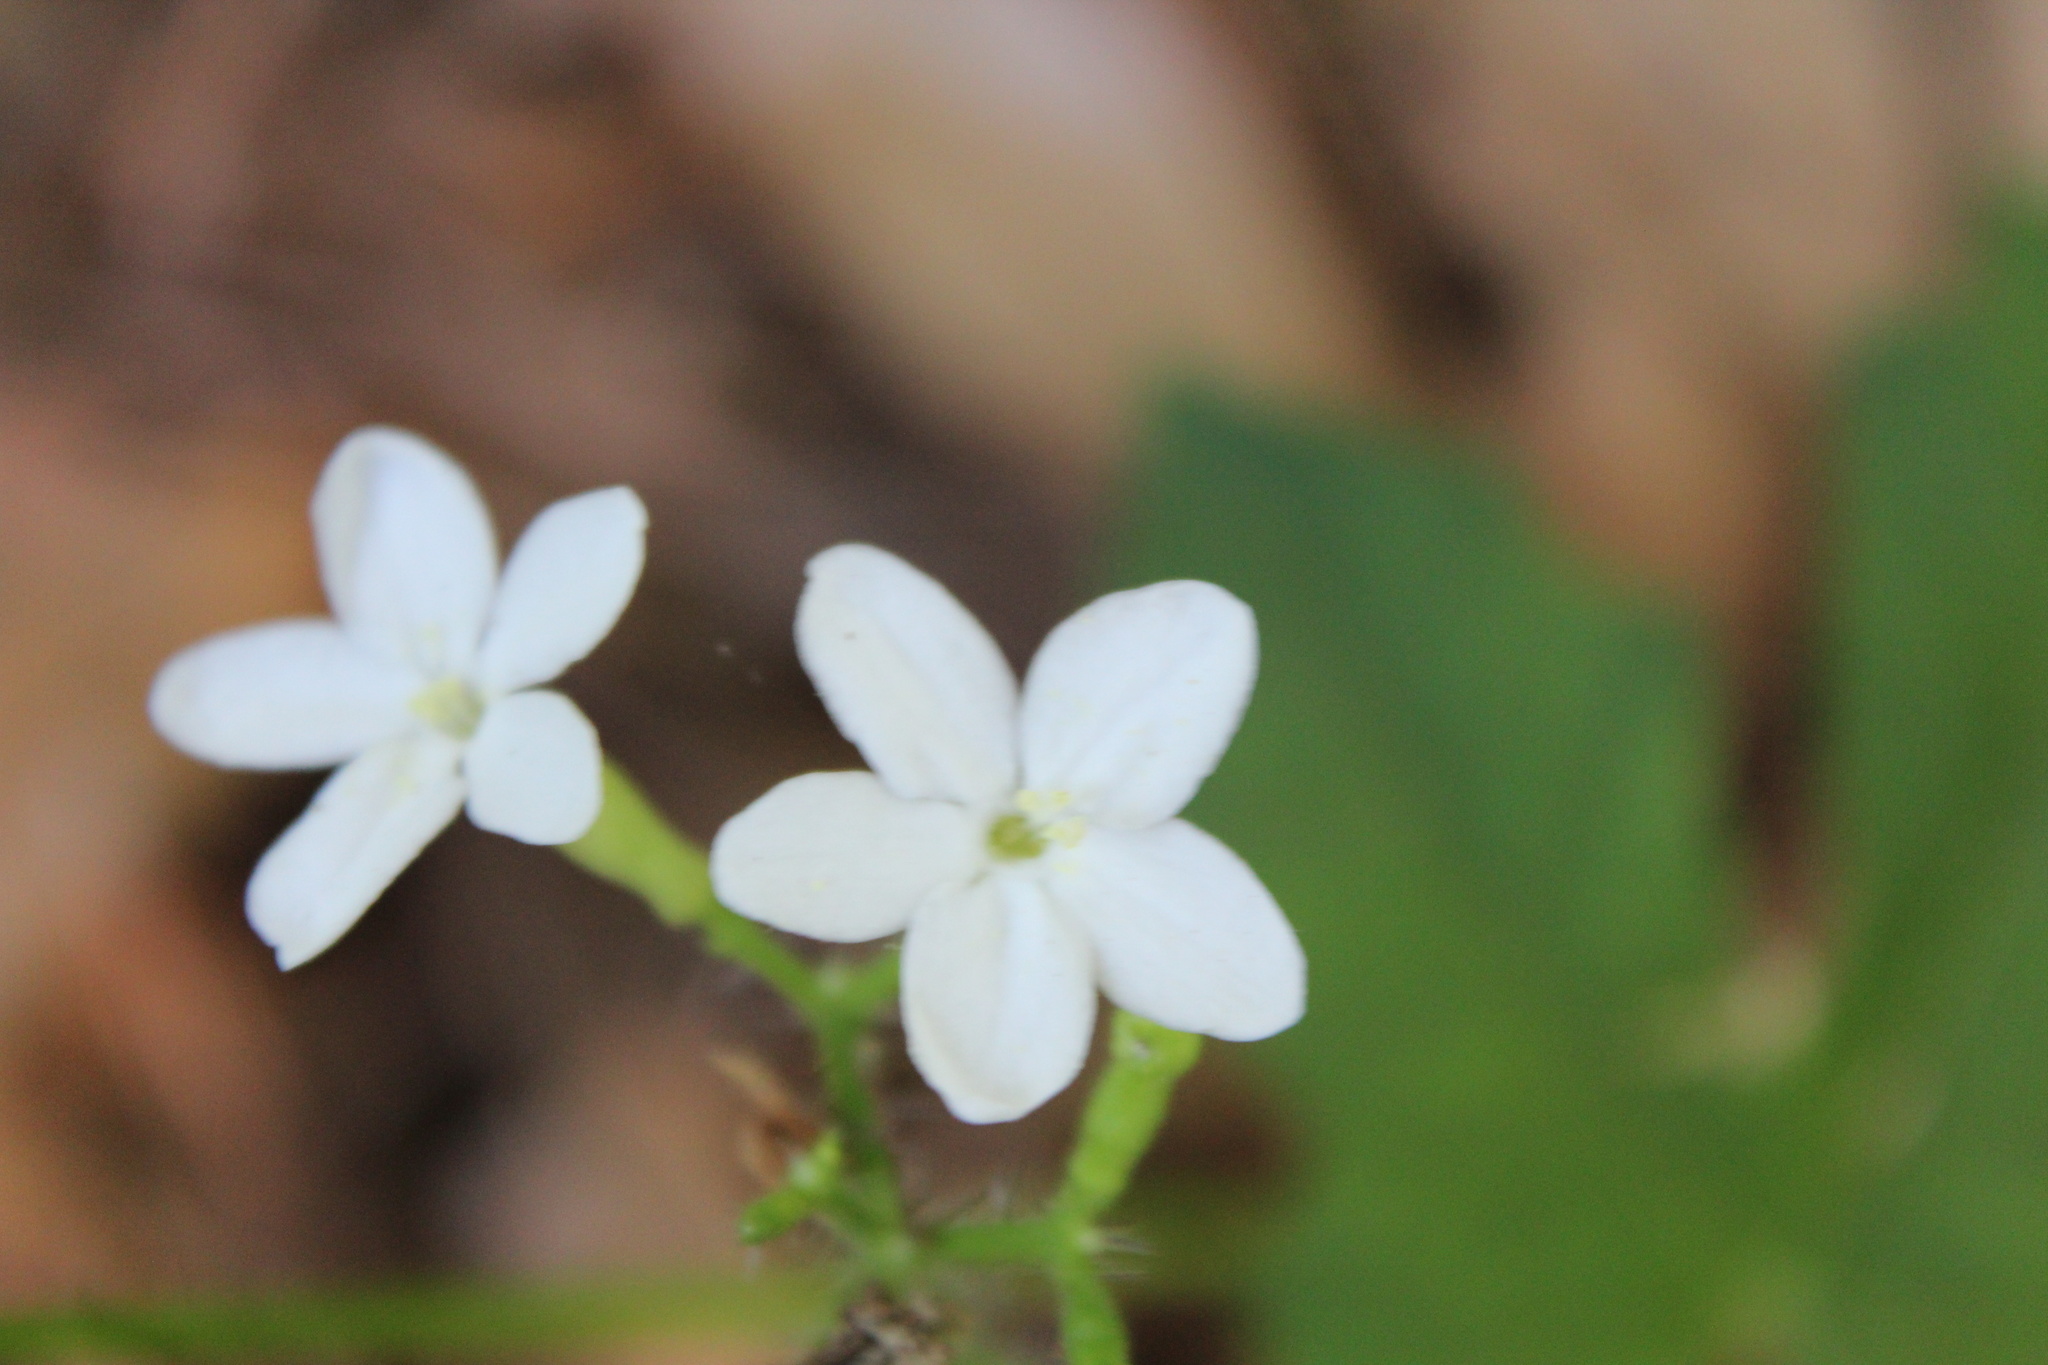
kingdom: Plantae
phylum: Tracheophyta
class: Magnoliopsida
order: Malpighiales
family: Euphorbiaceae
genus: Cnidoscolus
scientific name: Cnidoscolus stimulosus
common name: Bull-nettle
